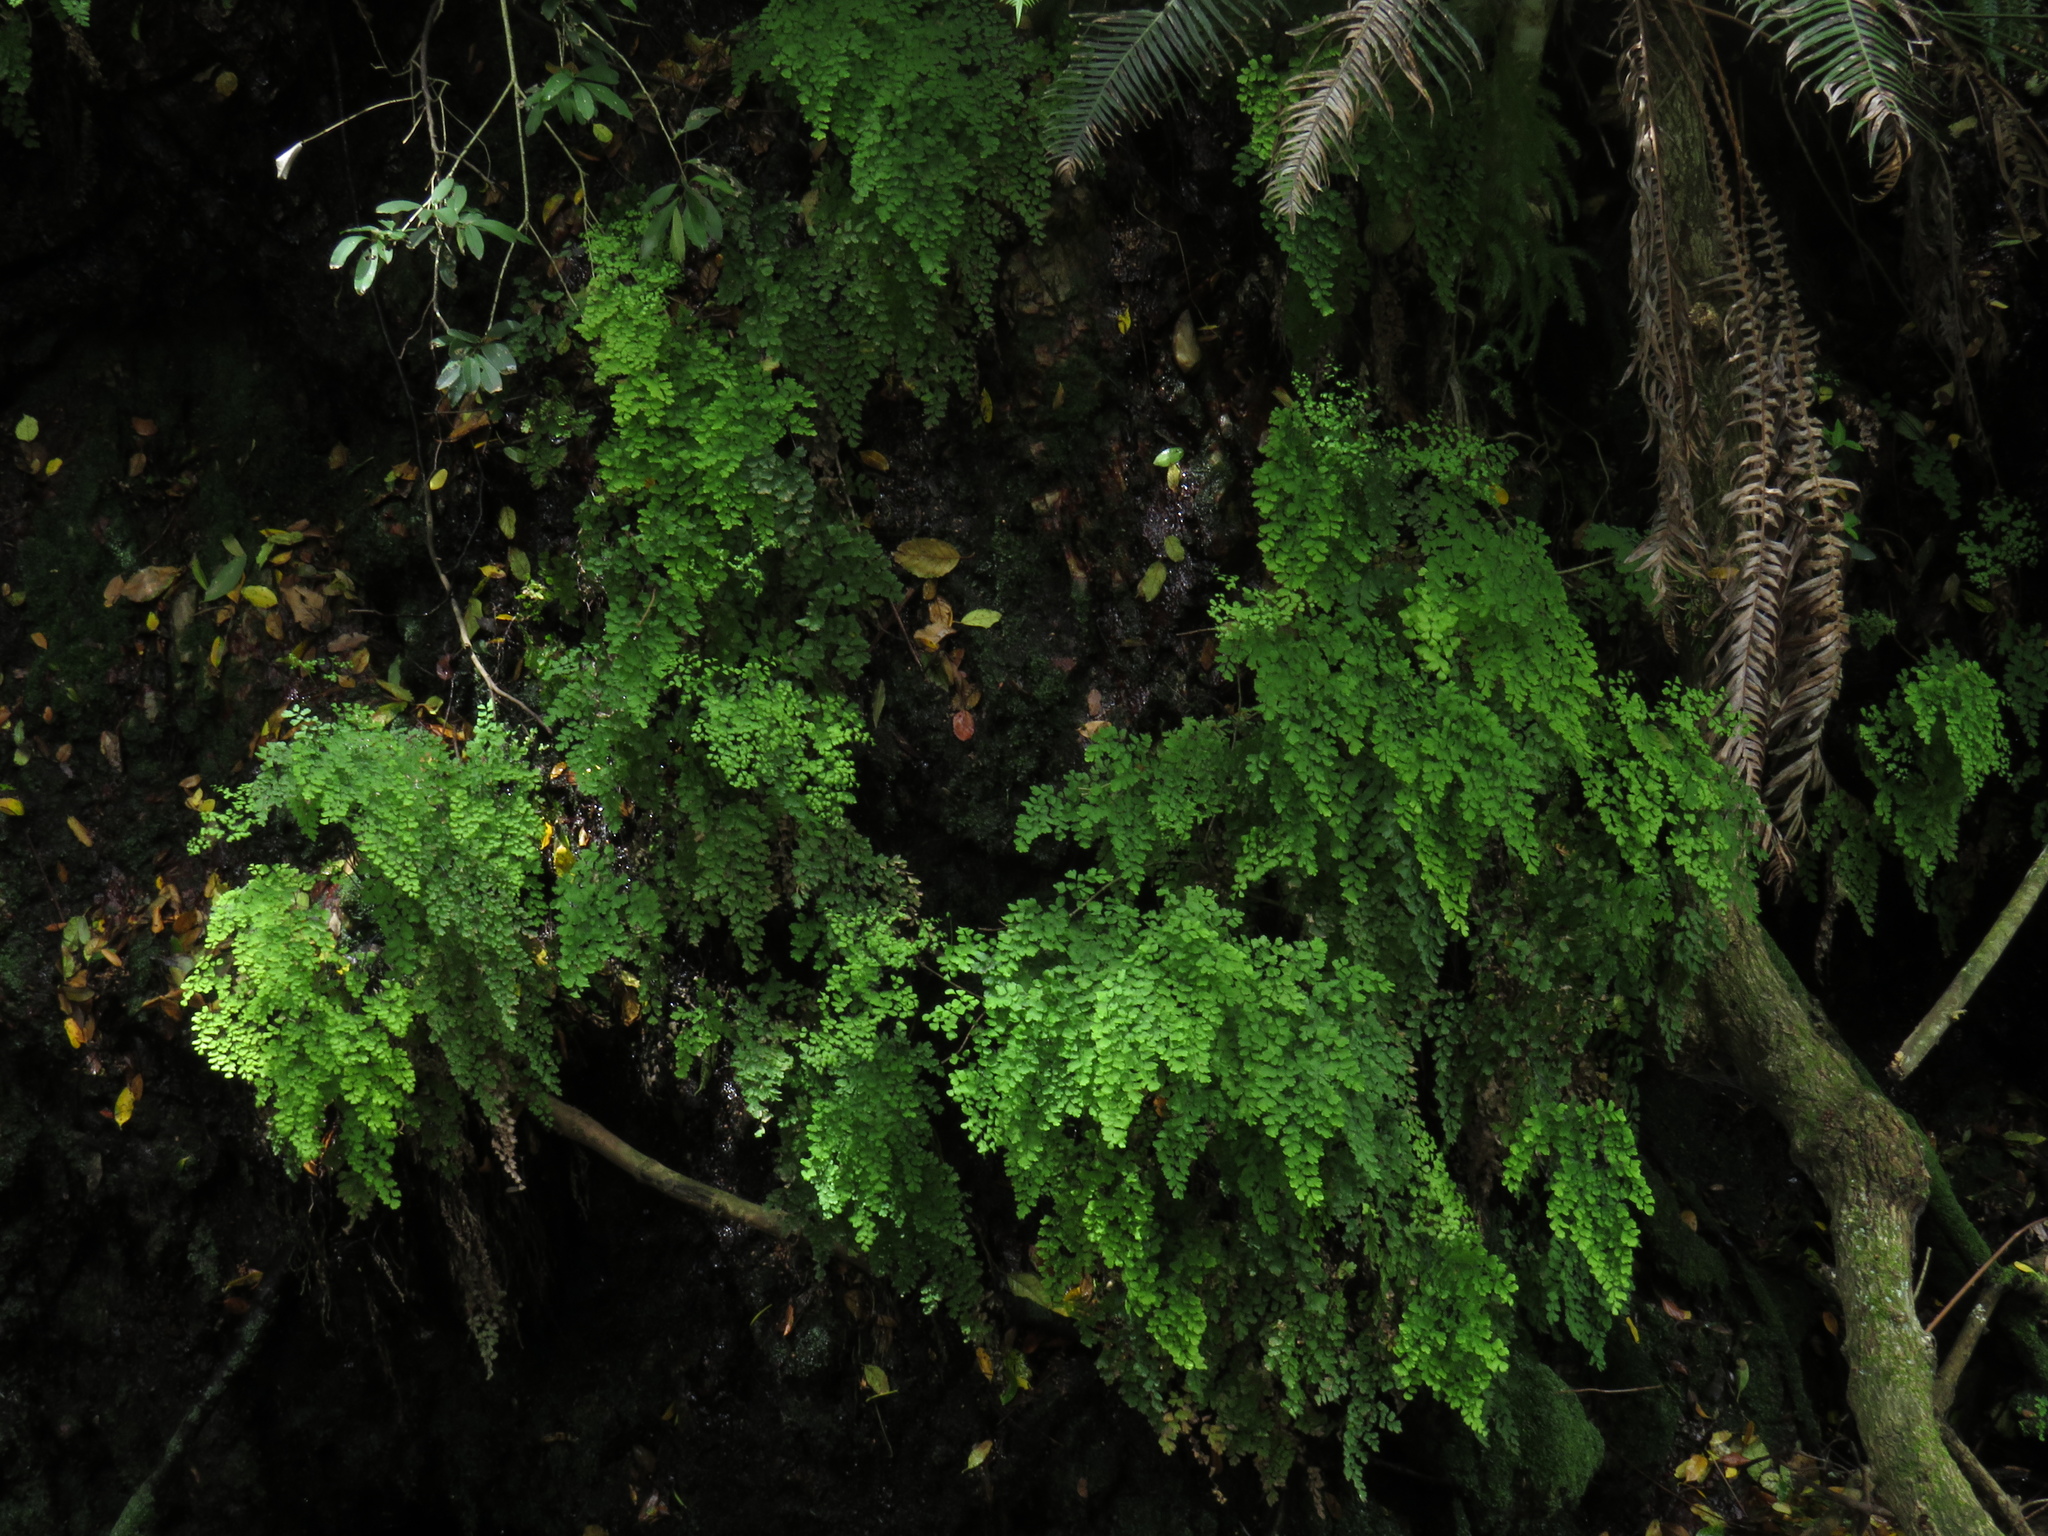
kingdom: Plantae
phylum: Tracheophyta
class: Polypodiopsida
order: Polypodiales
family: Pteridaceae
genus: Adiantum
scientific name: Adiantum capillus-veneris
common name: Maidenhair fern
